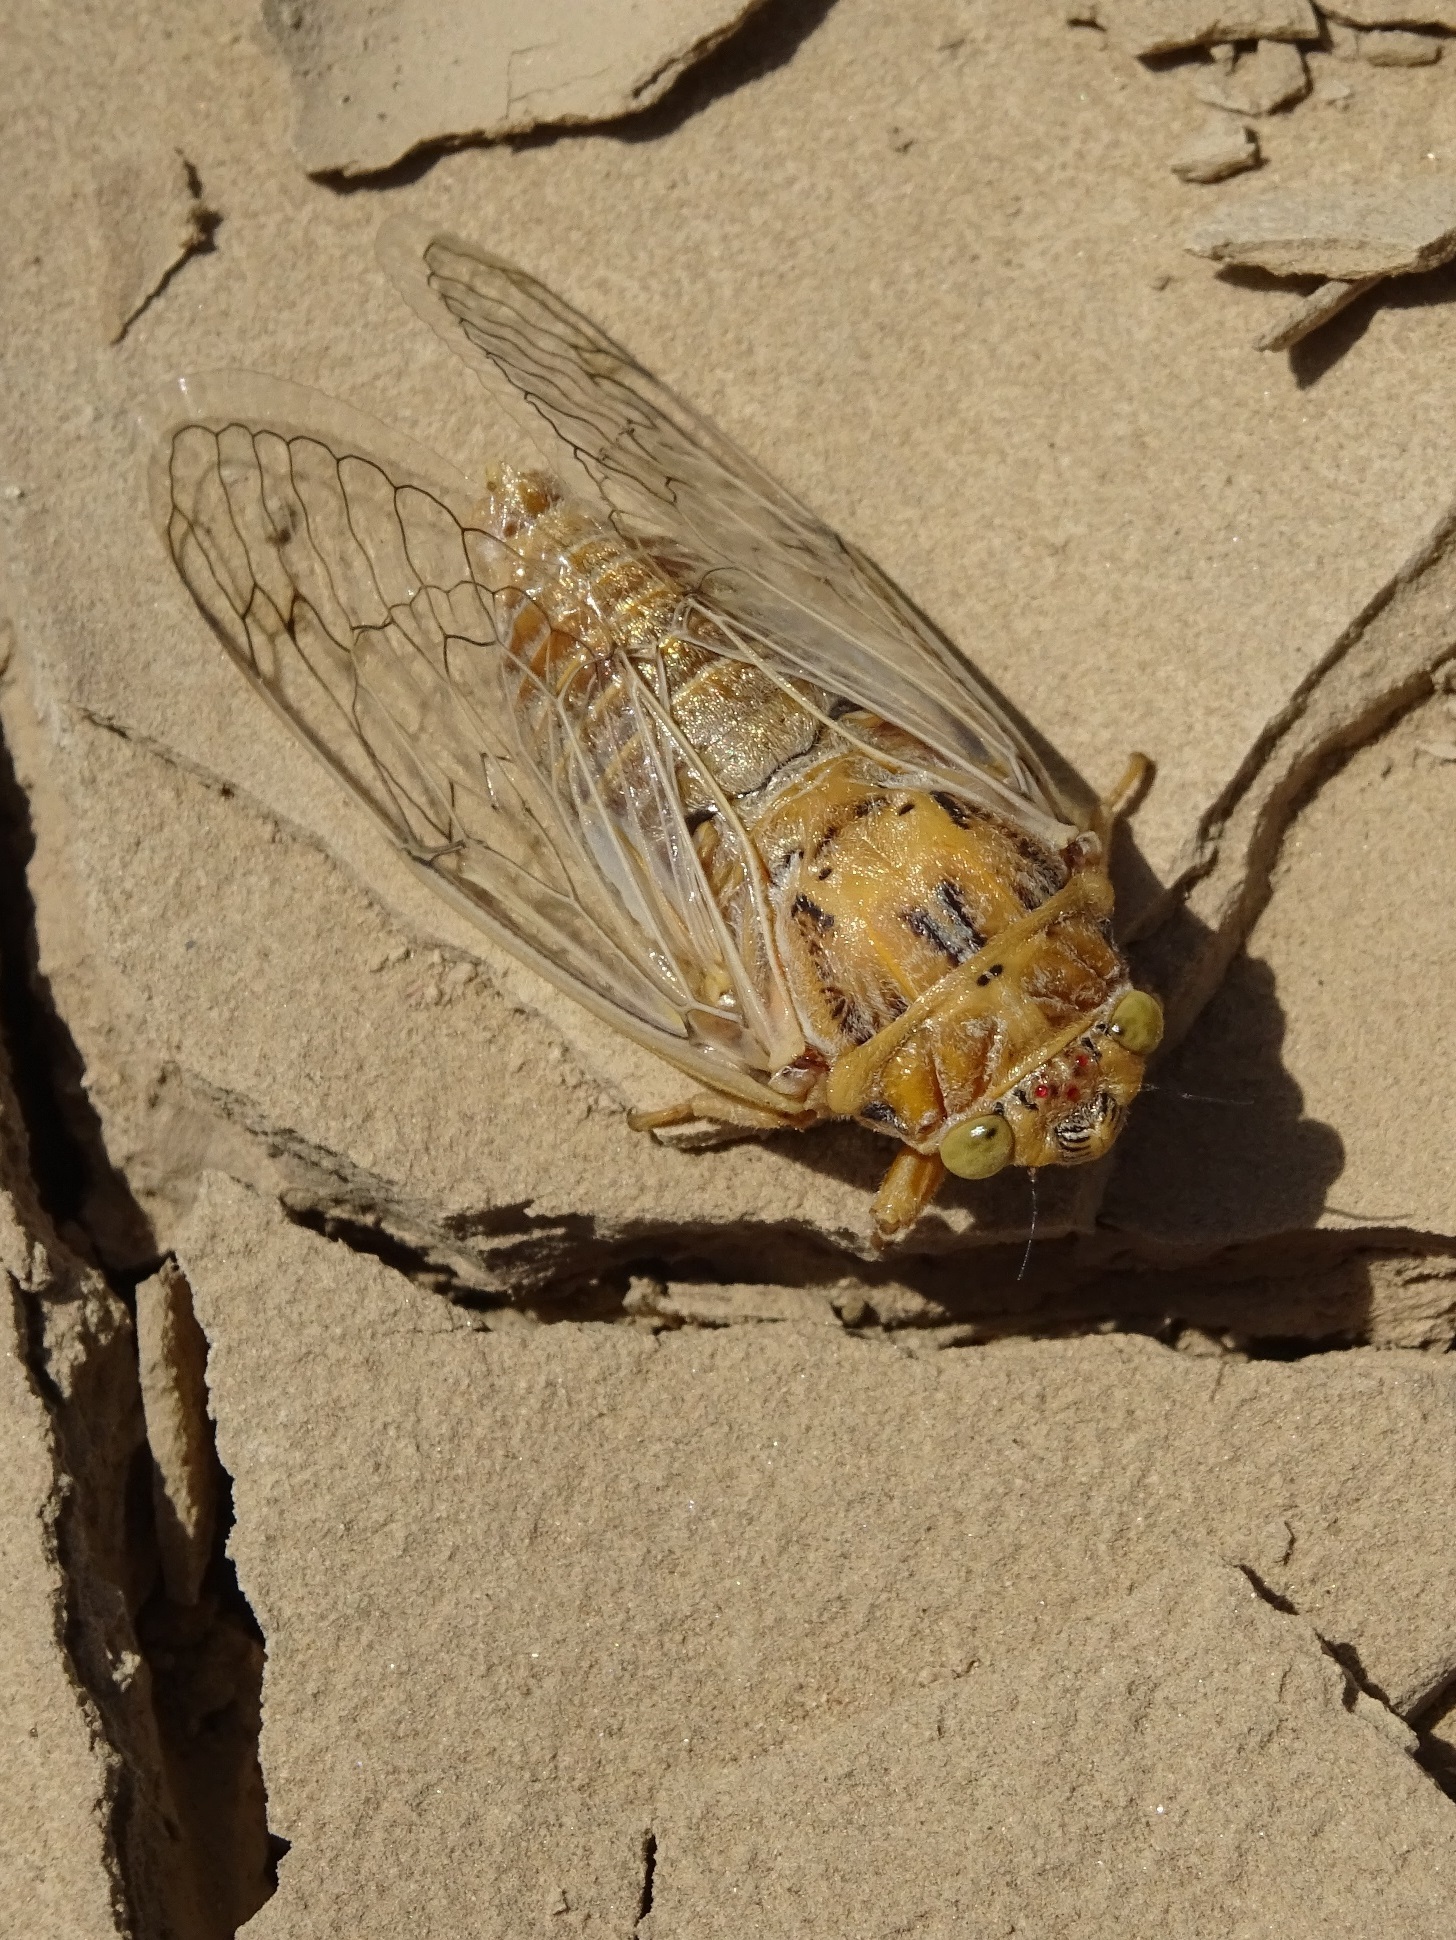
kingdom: Animalia
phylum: Arthropoda
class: Insecta
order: Hemiptera
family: Cicadidae
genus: Psalmocharias
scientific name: Psalmocharias flavus
